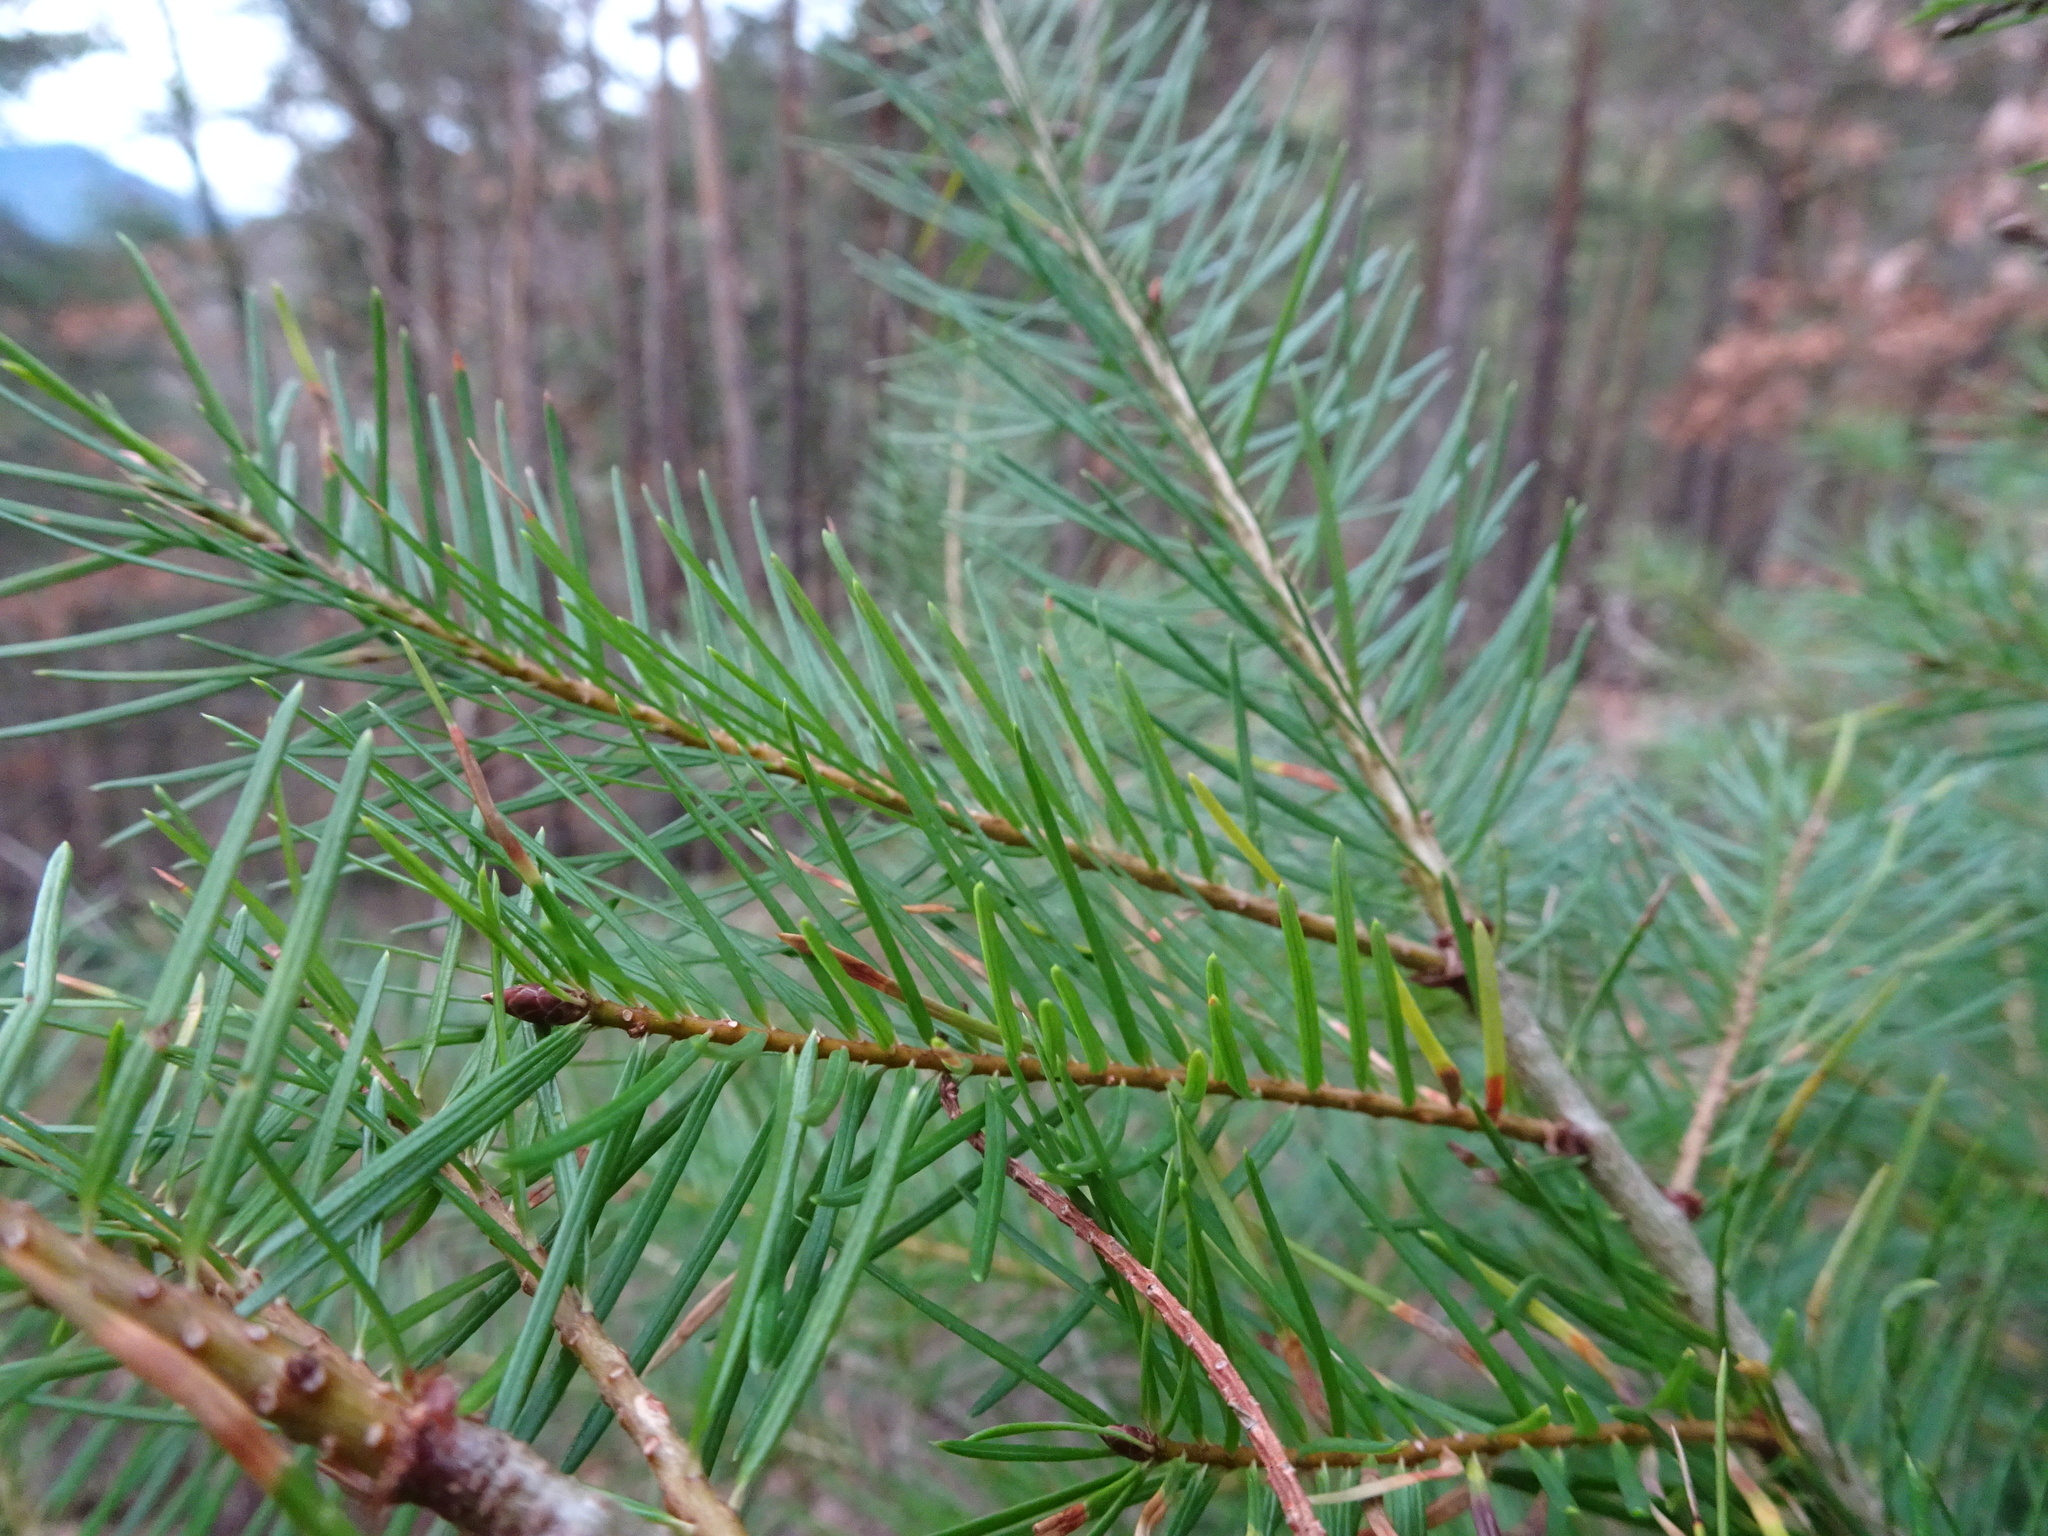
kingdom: Plantae
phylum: Tracheophyta
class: Pinopsida
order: Pinales
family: Pinaceae
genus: Pseudotsuga
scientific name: Pseudotsuga menziesii
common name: Douglas fir
